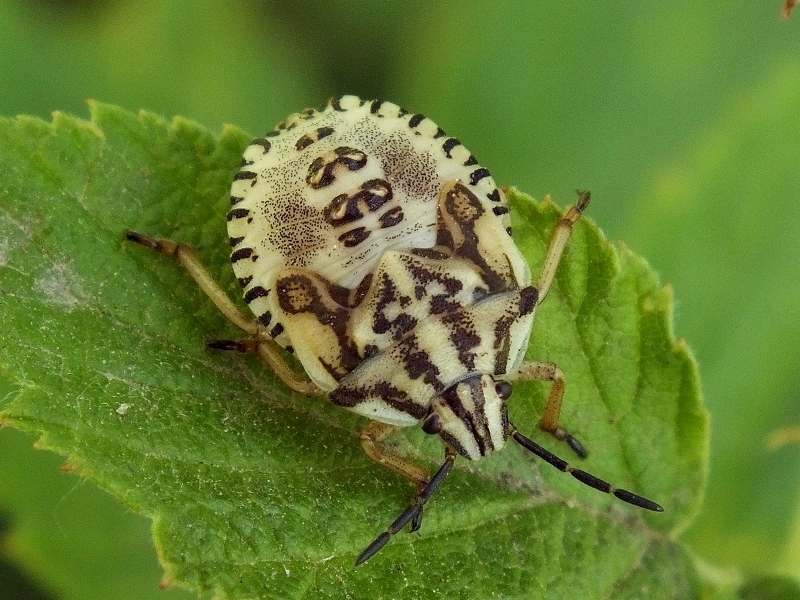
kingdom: Animalia
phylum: Arthropoda
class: Insecta
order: Hemiptera
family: Pentatomidae
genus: Carpocoris
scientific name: Carpocoris purpureipennis
